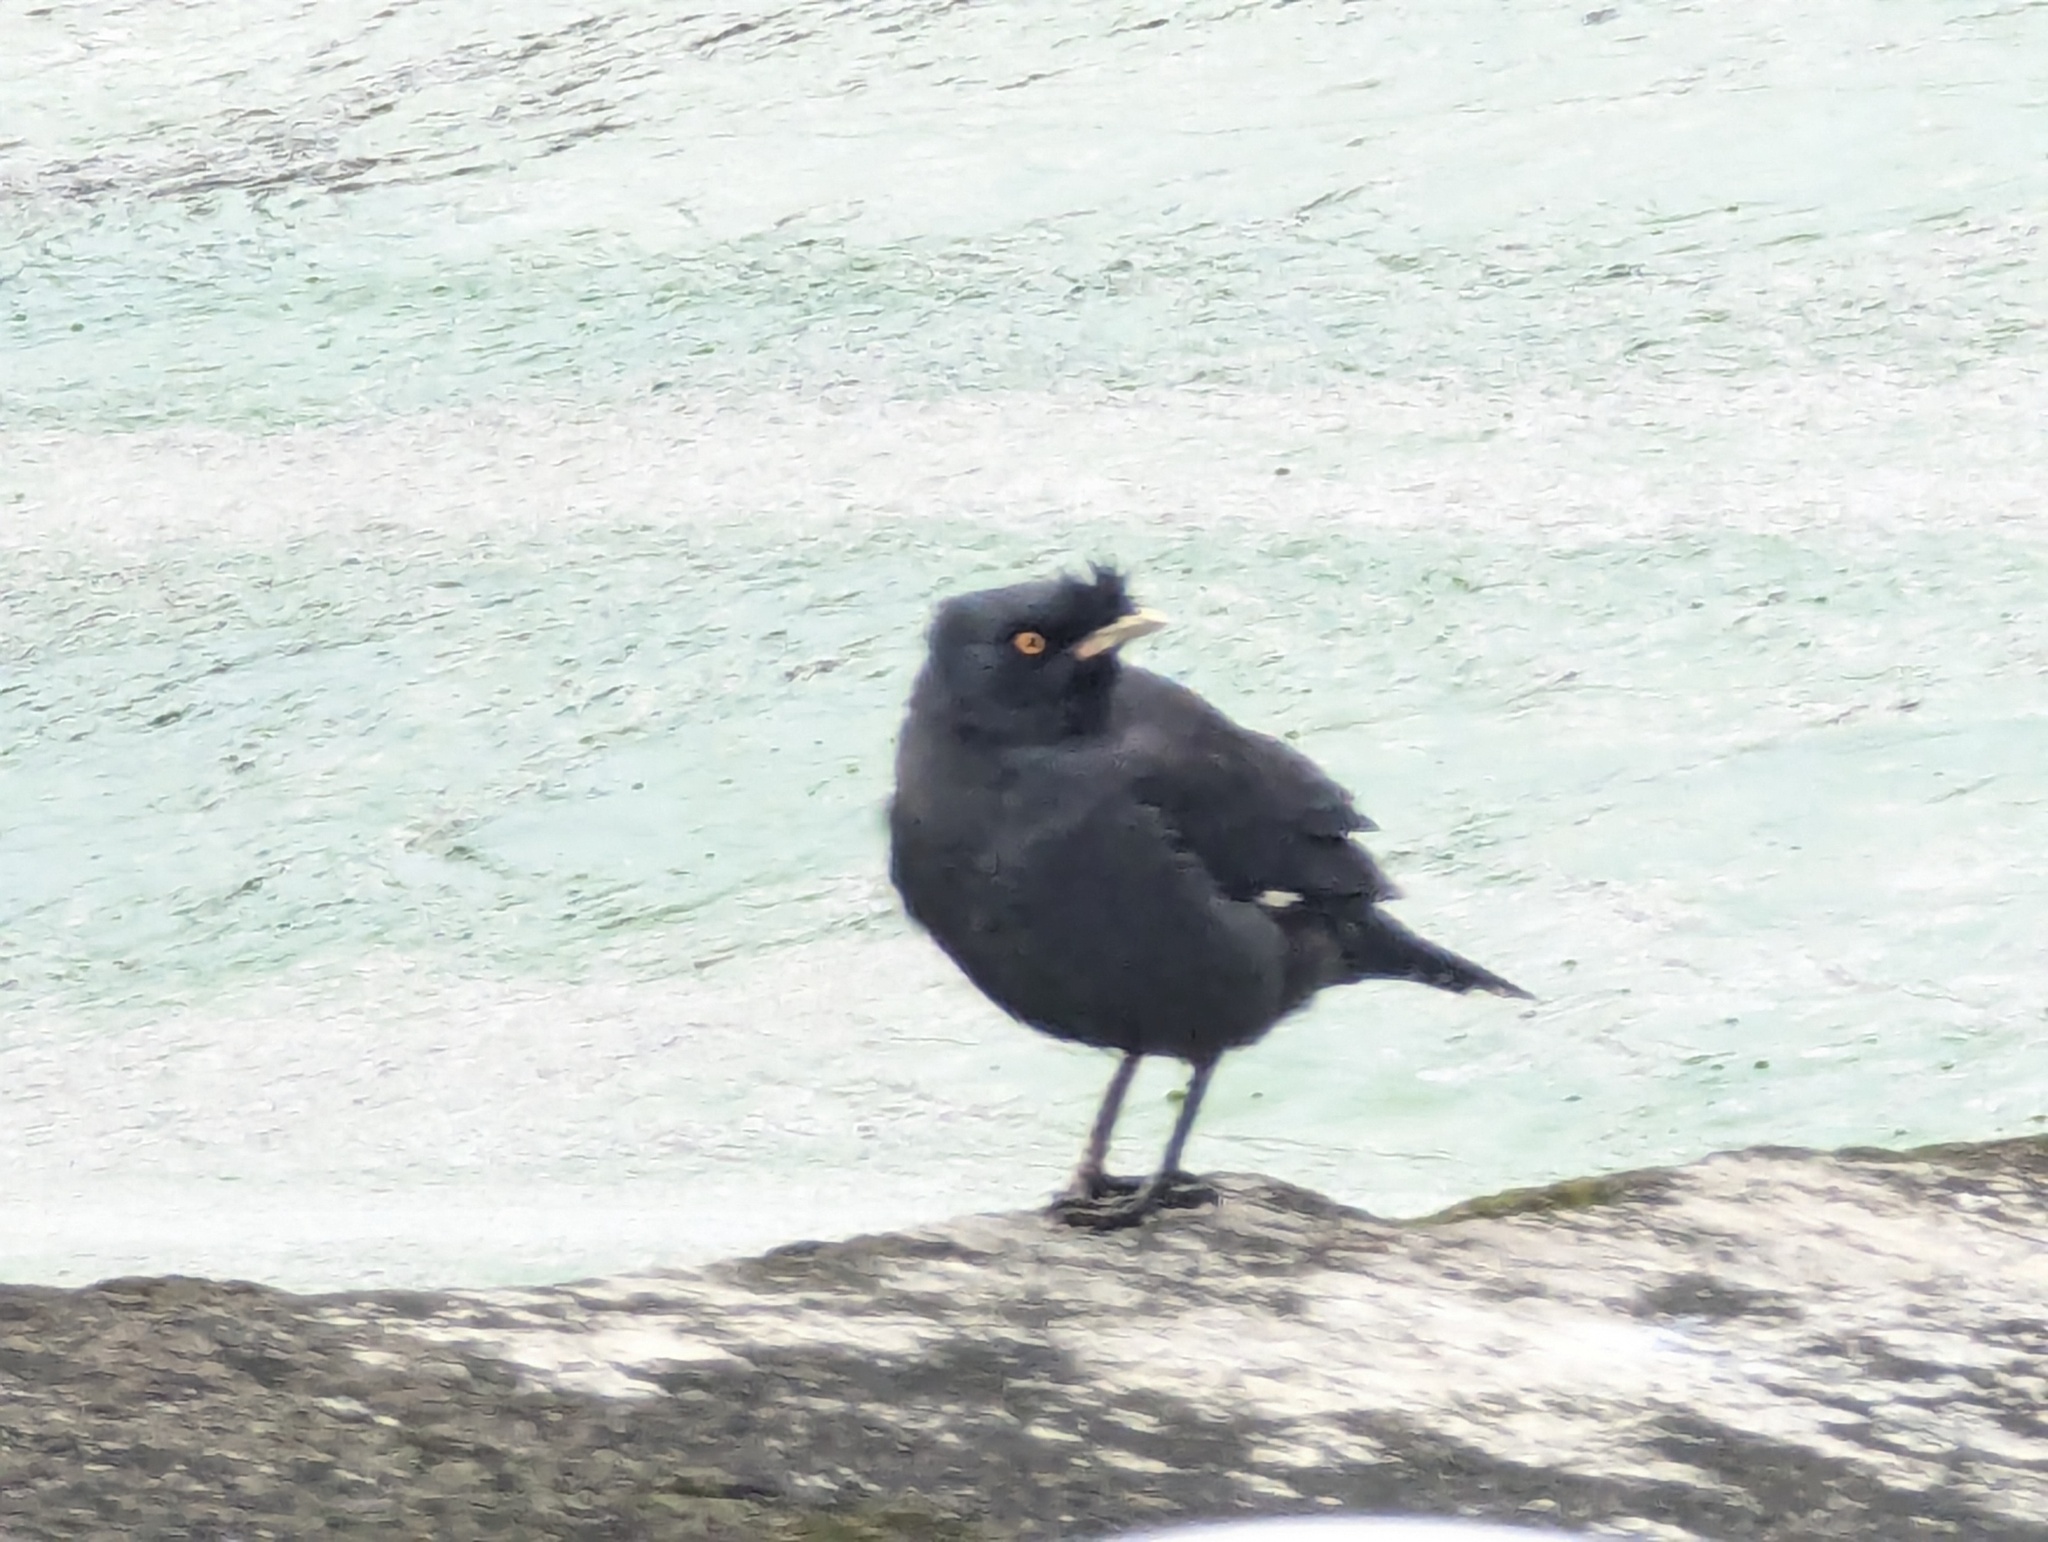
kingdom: Animalia
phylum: Chordata
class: Aves
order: Passeriformes
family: Sturnidae
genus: Acridotheres
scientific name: Acridotheres cristatellus
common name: Crested myna
